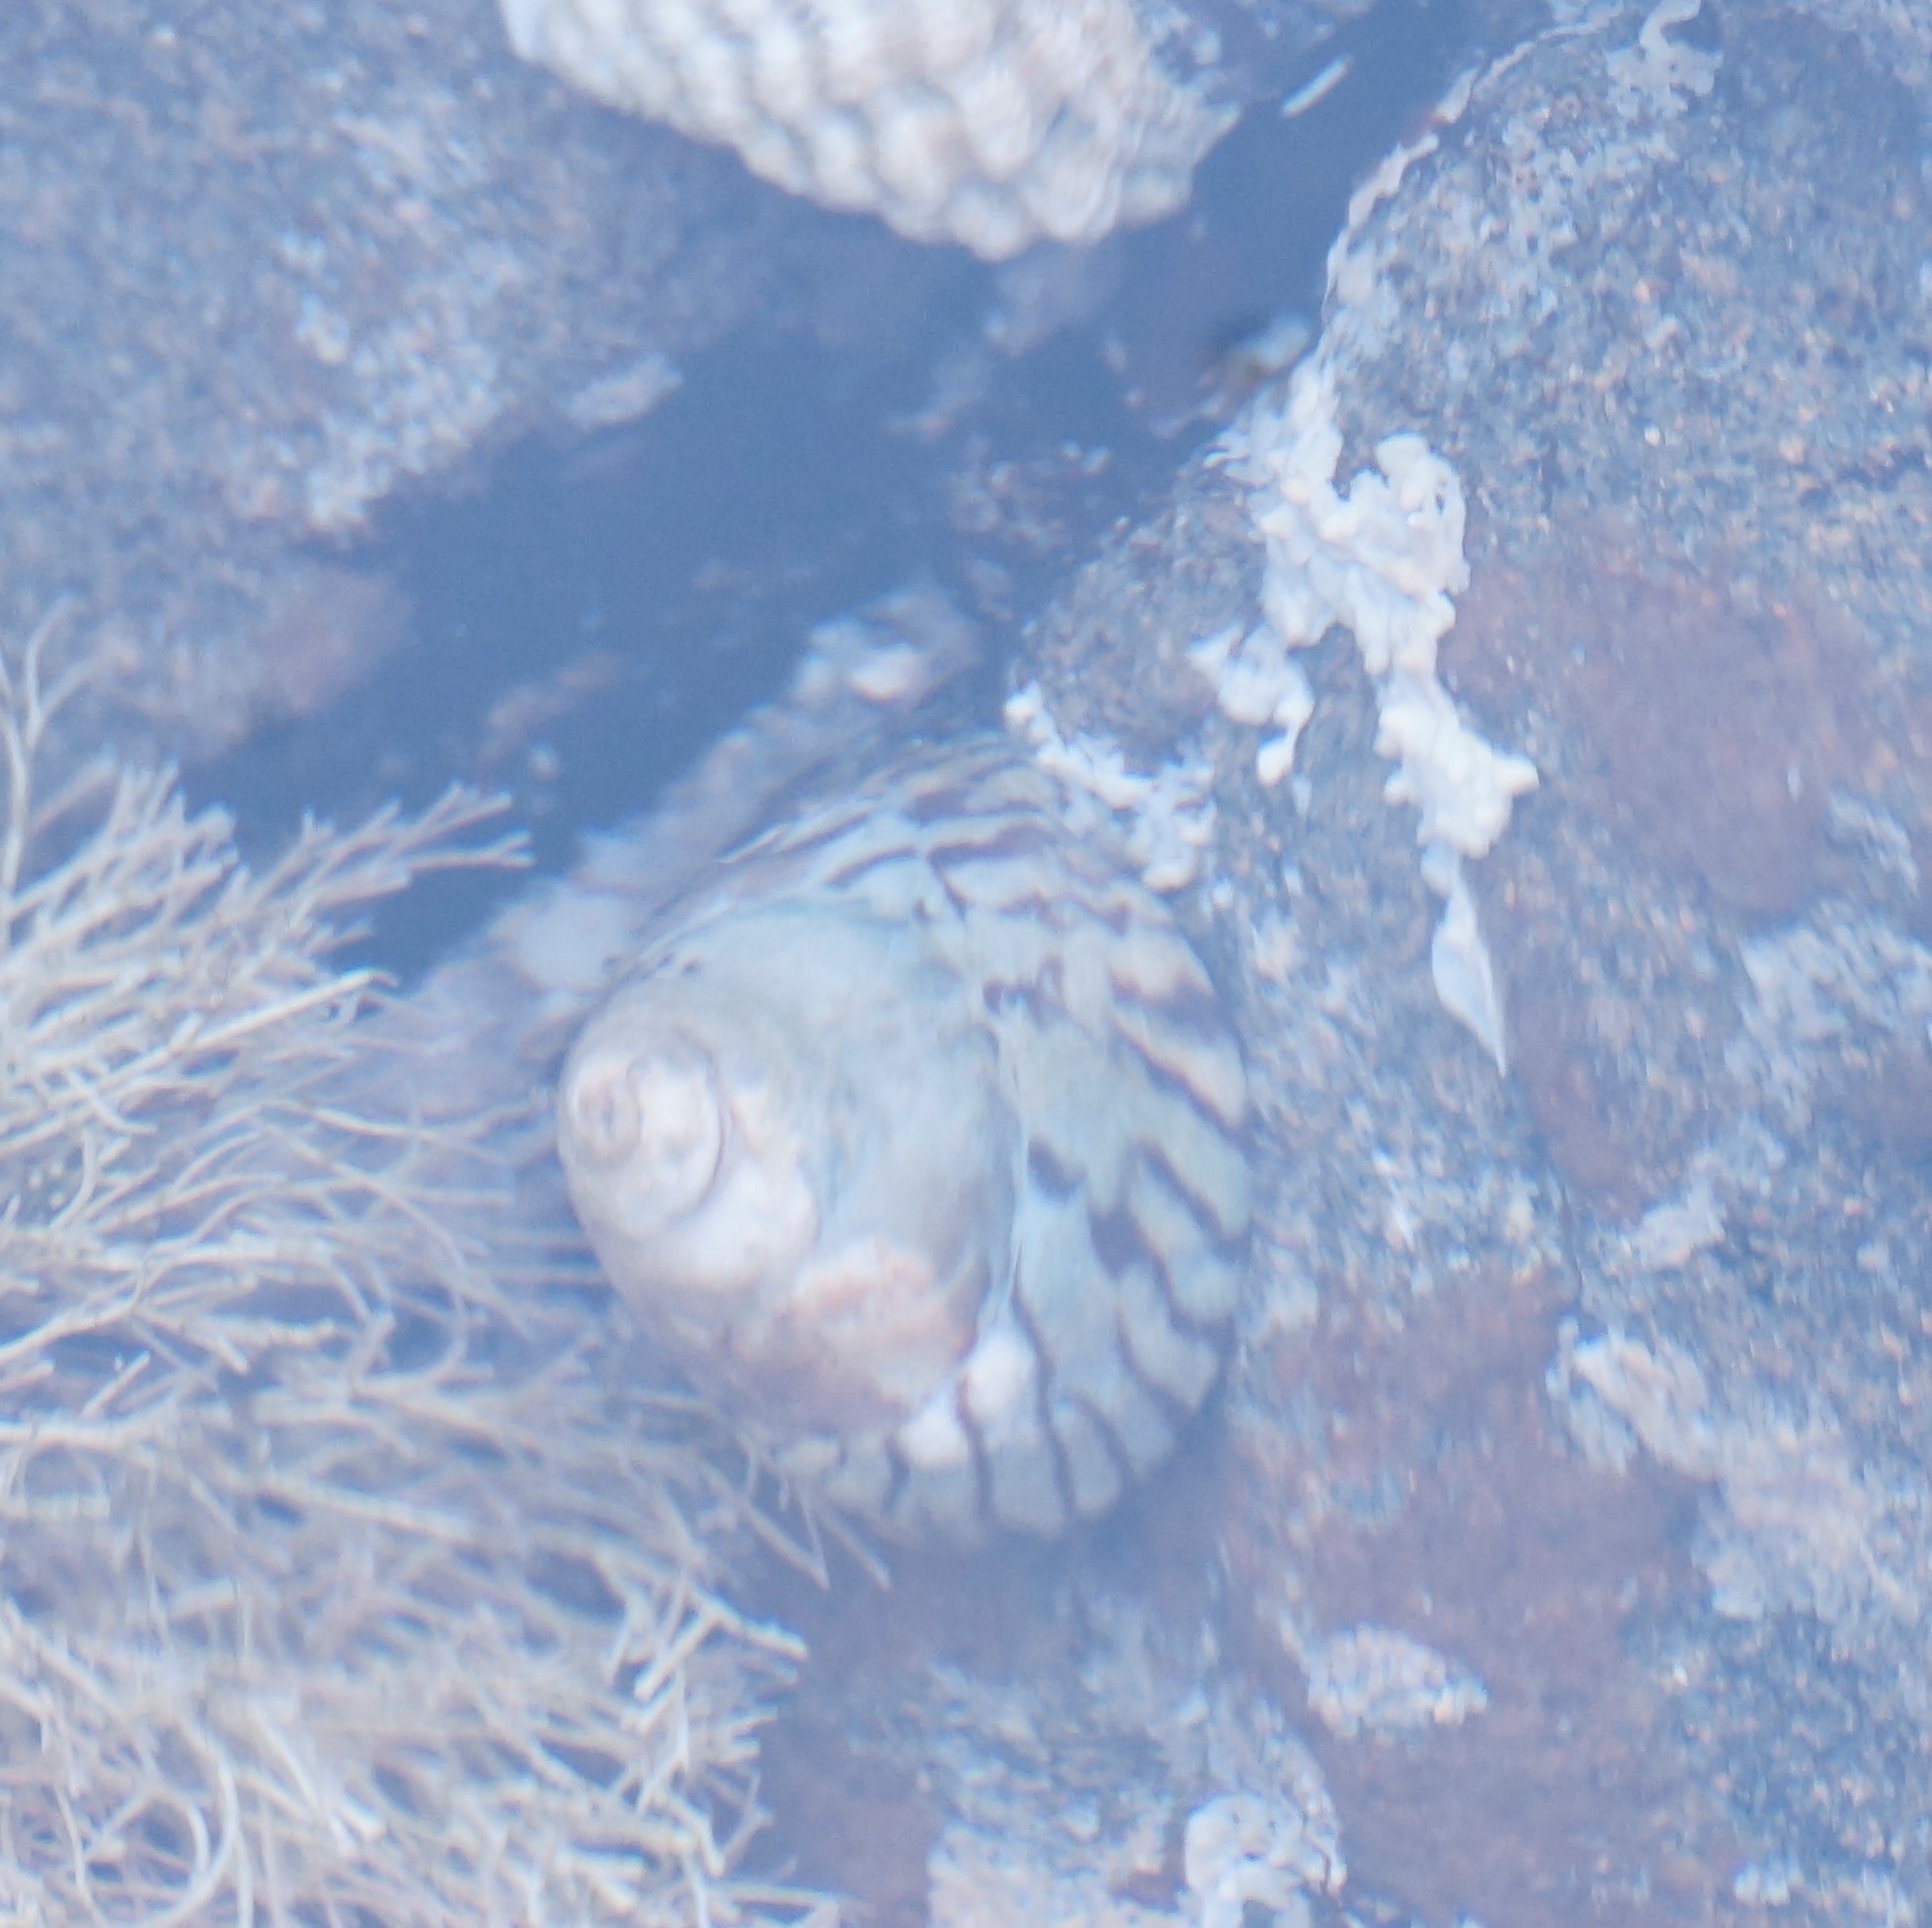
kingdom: Animalia
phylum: Mollusca
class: Gastropoda
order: Littorinimorpha
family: Littorinidae
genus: Bembicium
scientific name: Bembicium nanum
